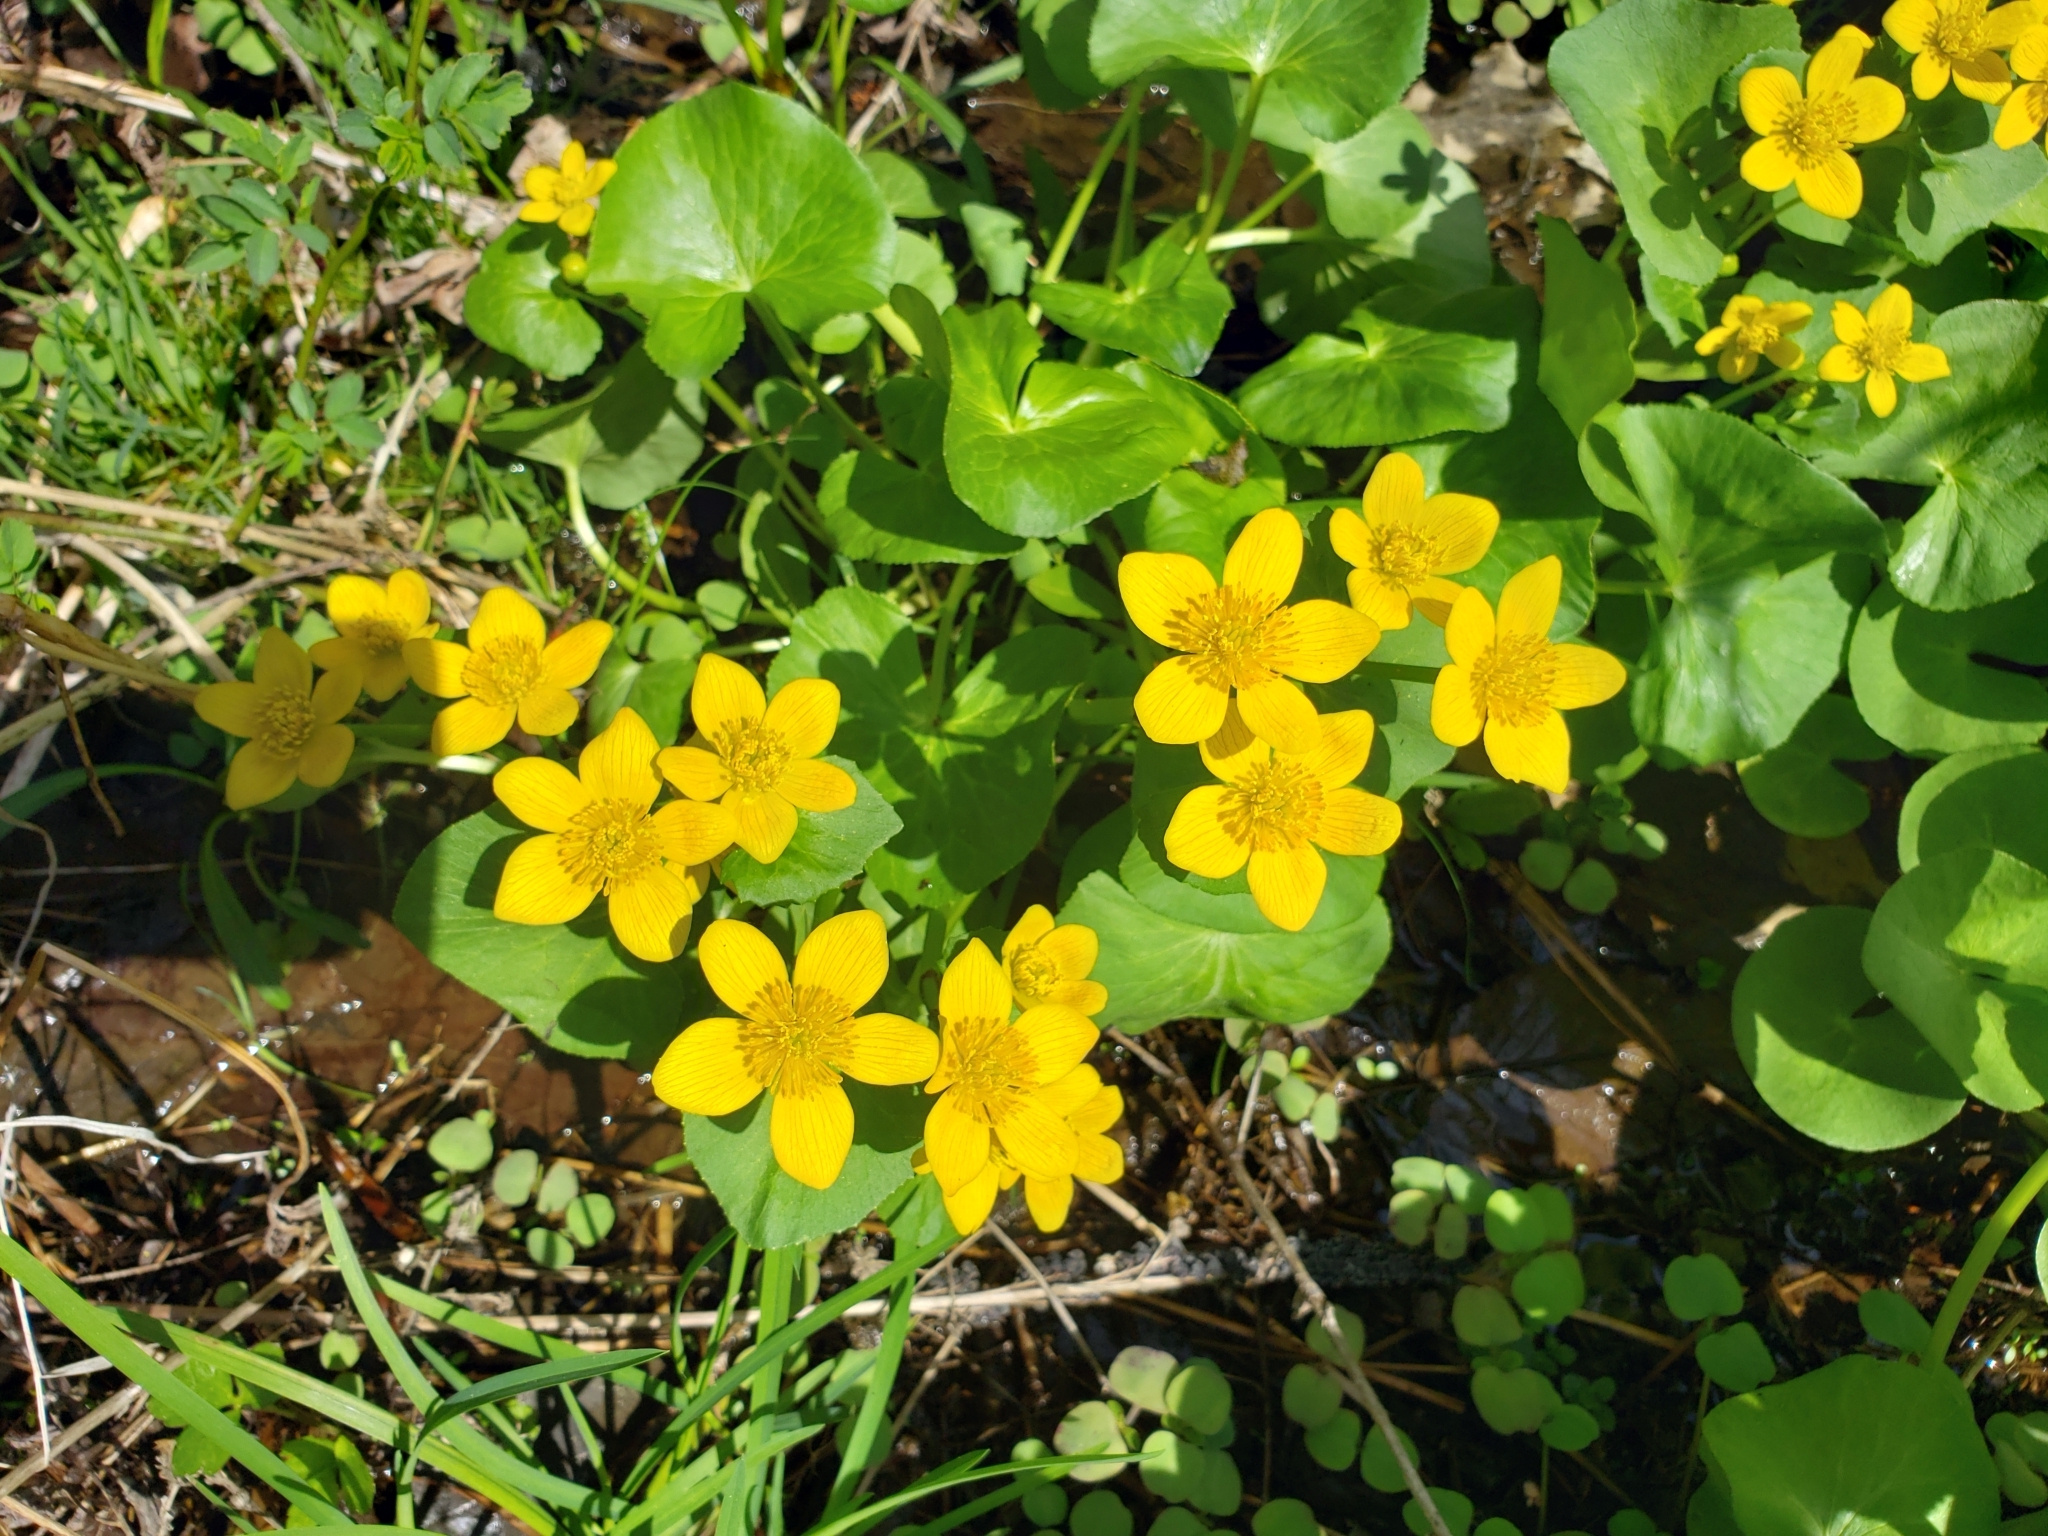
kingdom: Plantae
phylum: Tracheophyta
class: Magnoliopsida
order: Ranunculales
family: Ranunculaceae
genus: Caltha
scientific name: Caltha palustris
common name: Marsh marigold
